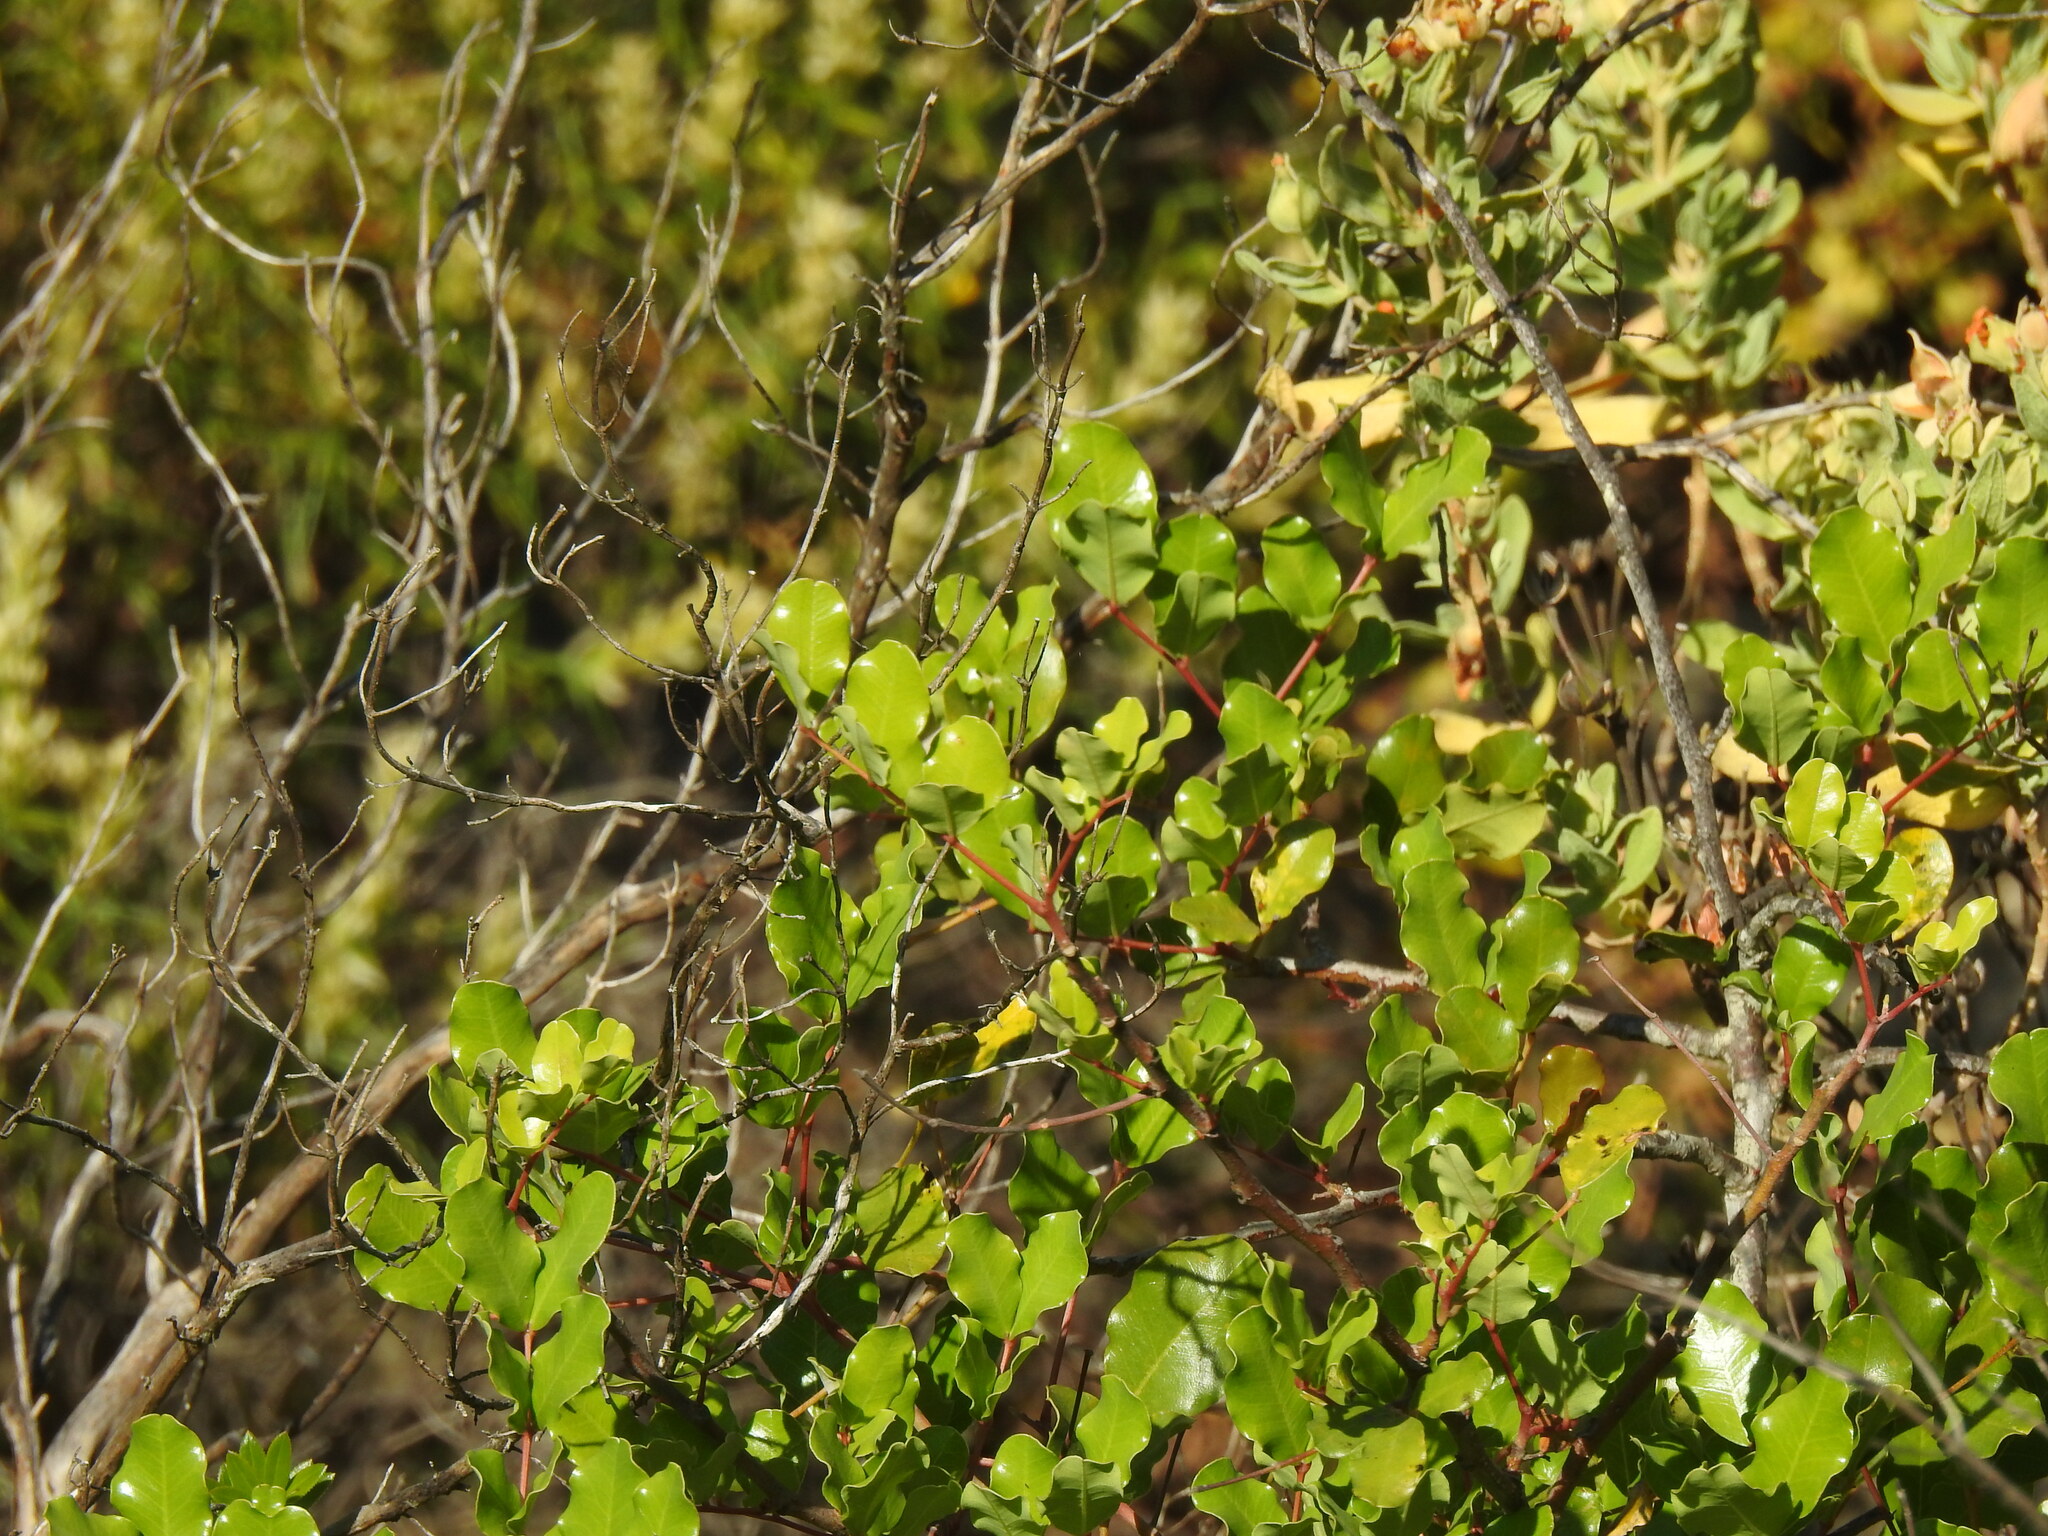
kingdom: Plantae
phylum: Tracheophyta
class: Magnoliopsida
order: Fabales
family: Fabaceae
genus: Ceratonia
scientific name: Ceratonia siliqua
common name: Carob
